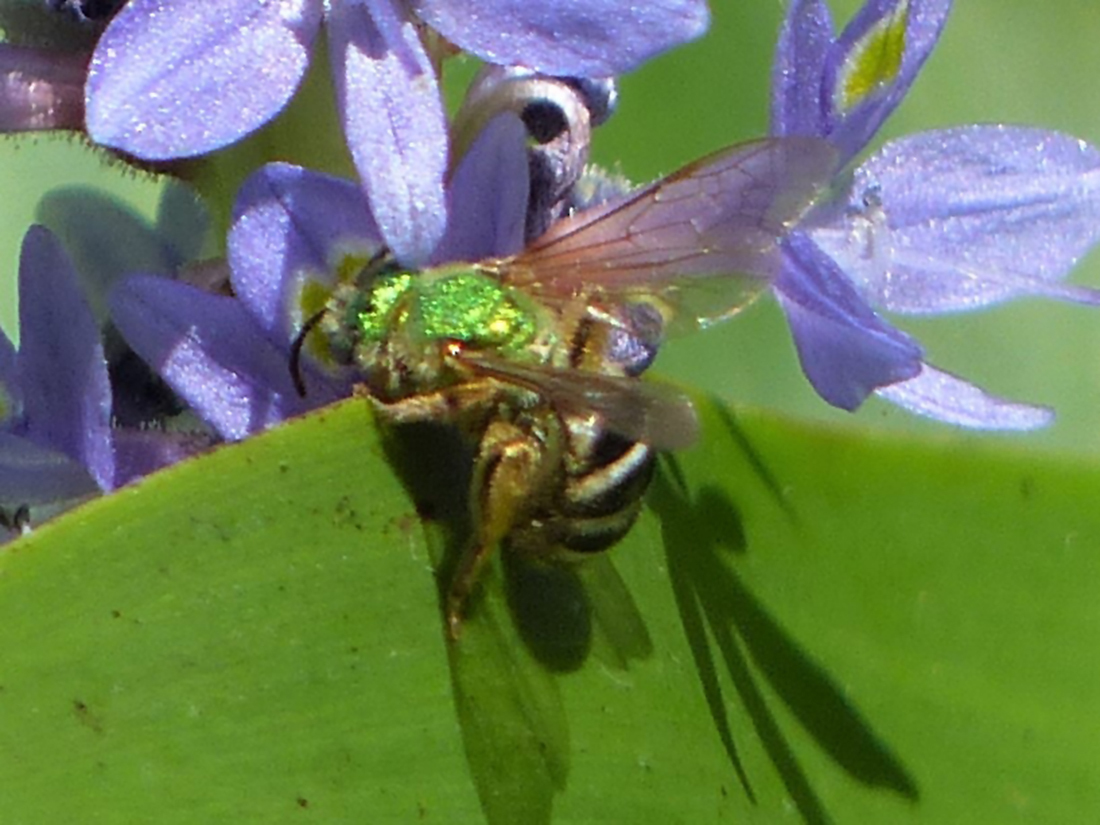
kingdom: Animalia
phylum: Arthropoda
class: Insecta
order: Hymenoptera
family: Halictidae
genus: Agapostemon
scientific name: Agapostemon virescens
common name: Bicolored striped sweat bee
